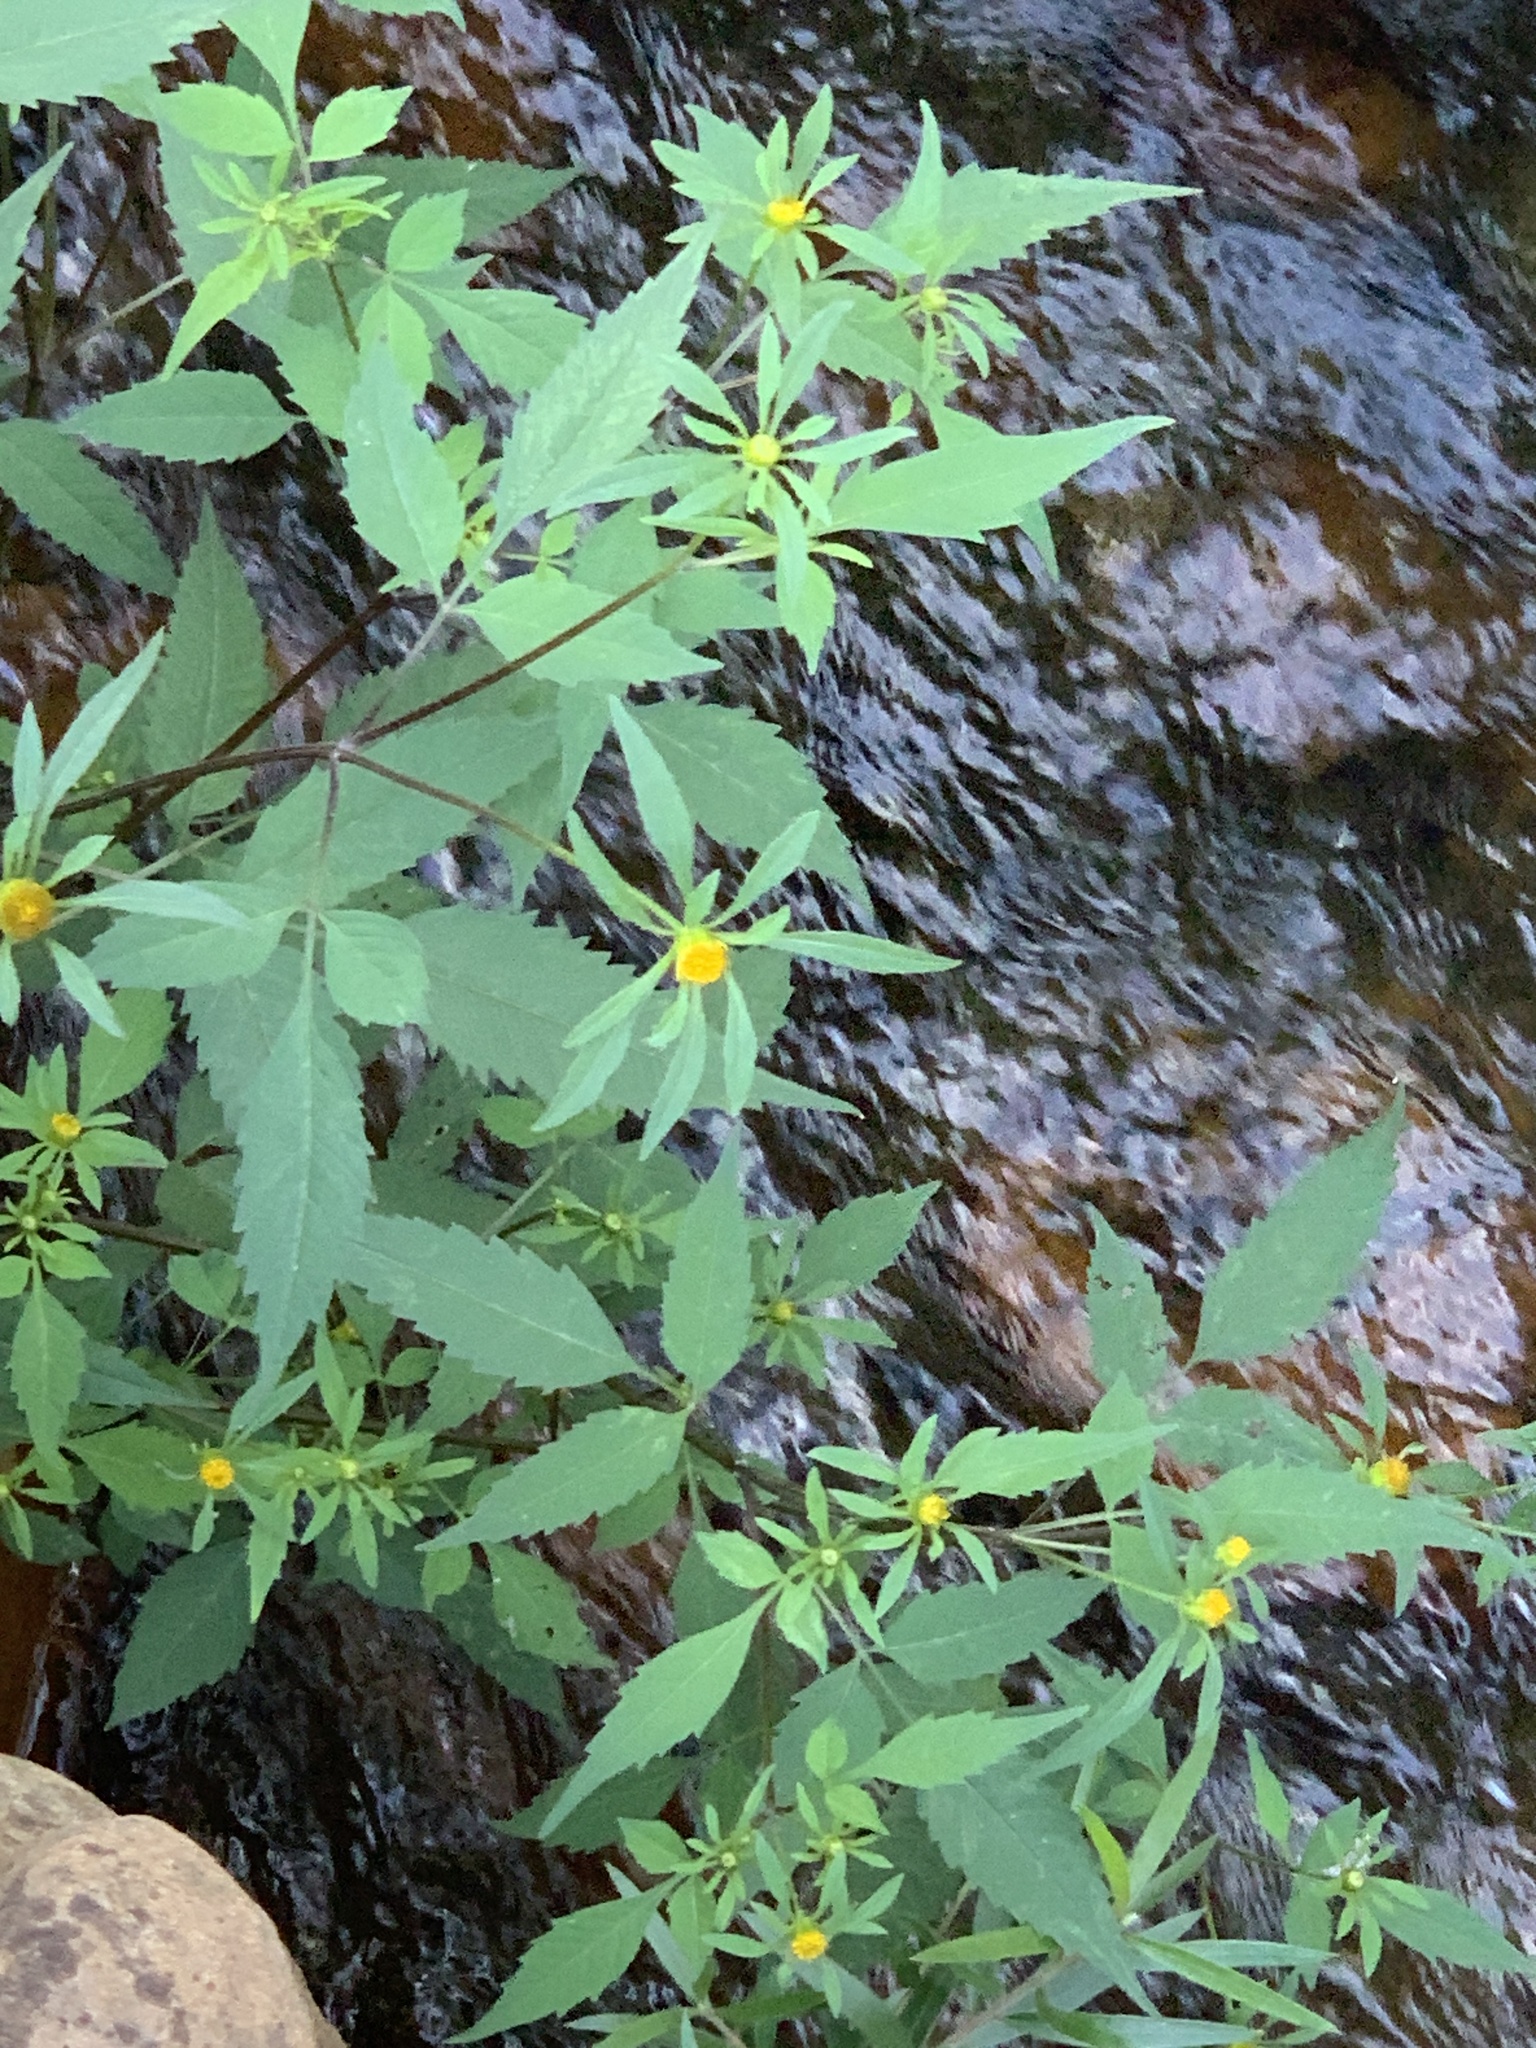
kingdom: Plantae
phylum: Tracheophyta
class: Magnoliopsida
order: Asterales
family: Asteraceae
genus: Bidens
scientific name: Bidens frondosa
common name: Beggarticks
